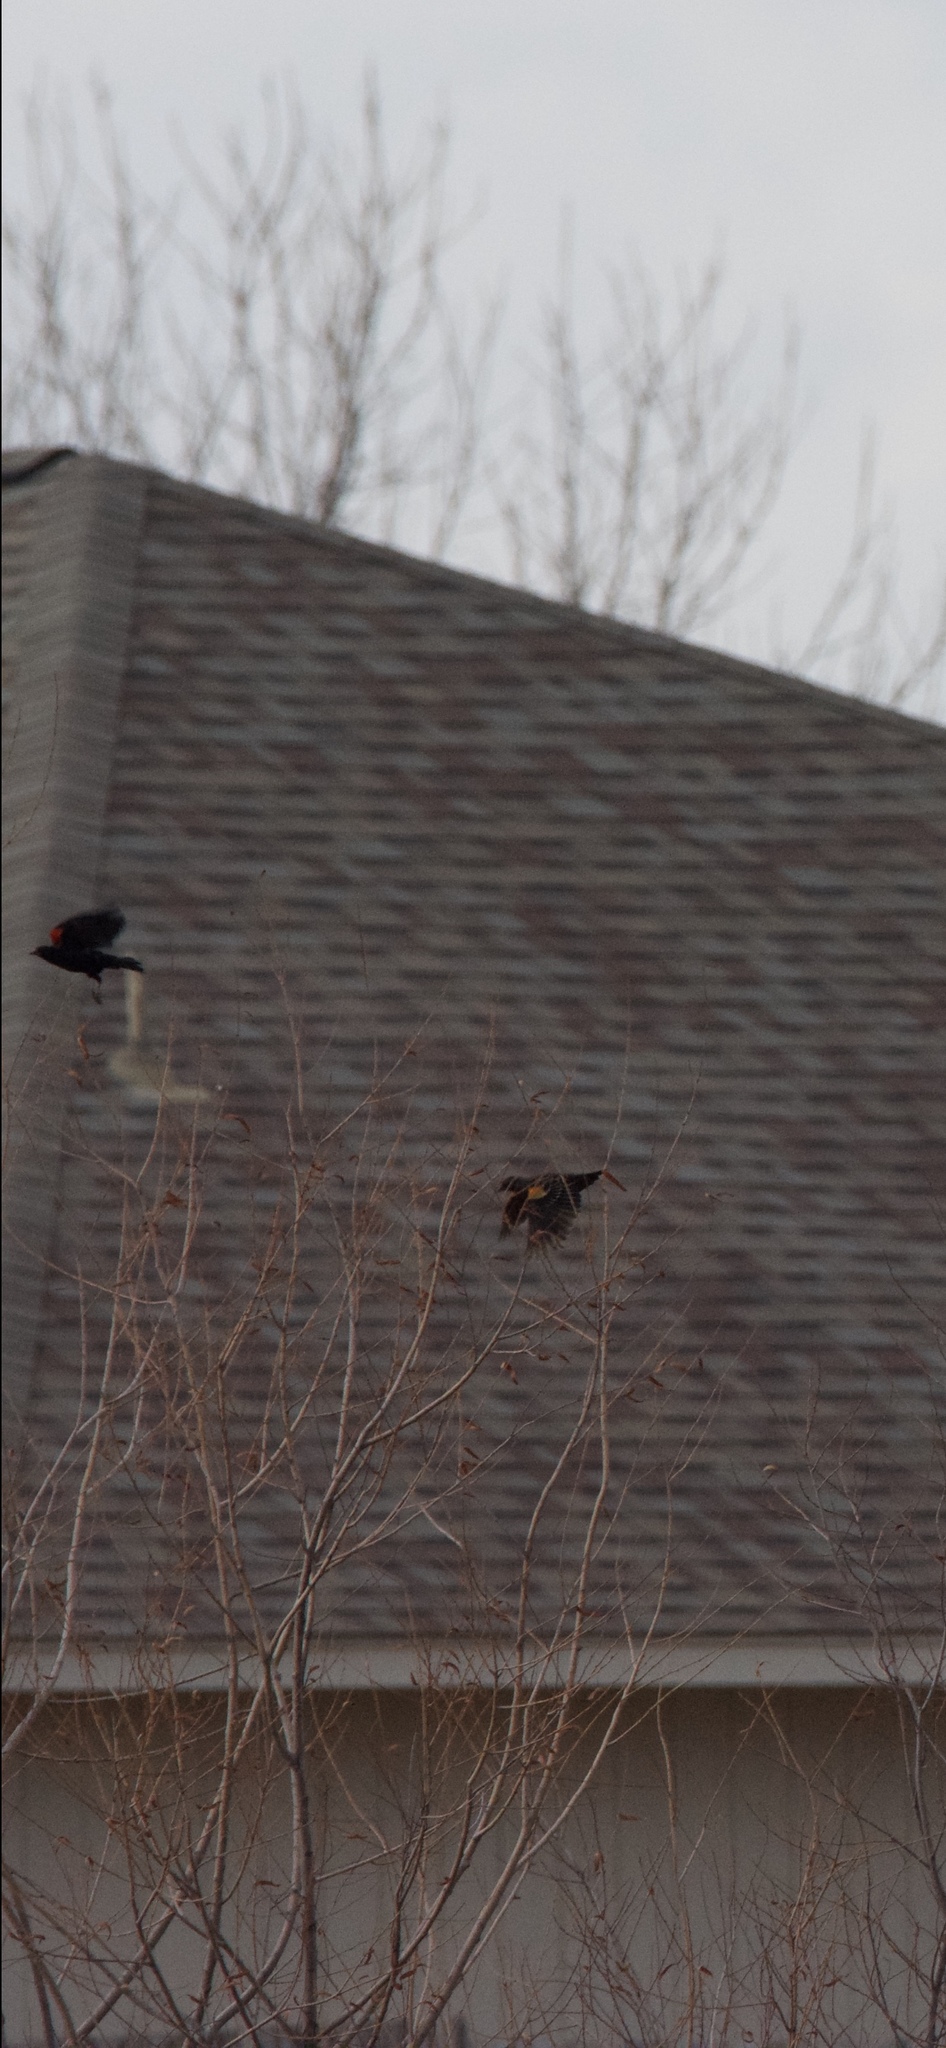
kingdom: Animalia
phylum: Chordata
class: Aves
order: Passeriformes
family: Icteridae
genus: Agelaius
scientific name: Agelaius phoeniceus
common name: Red-winged blackbird
